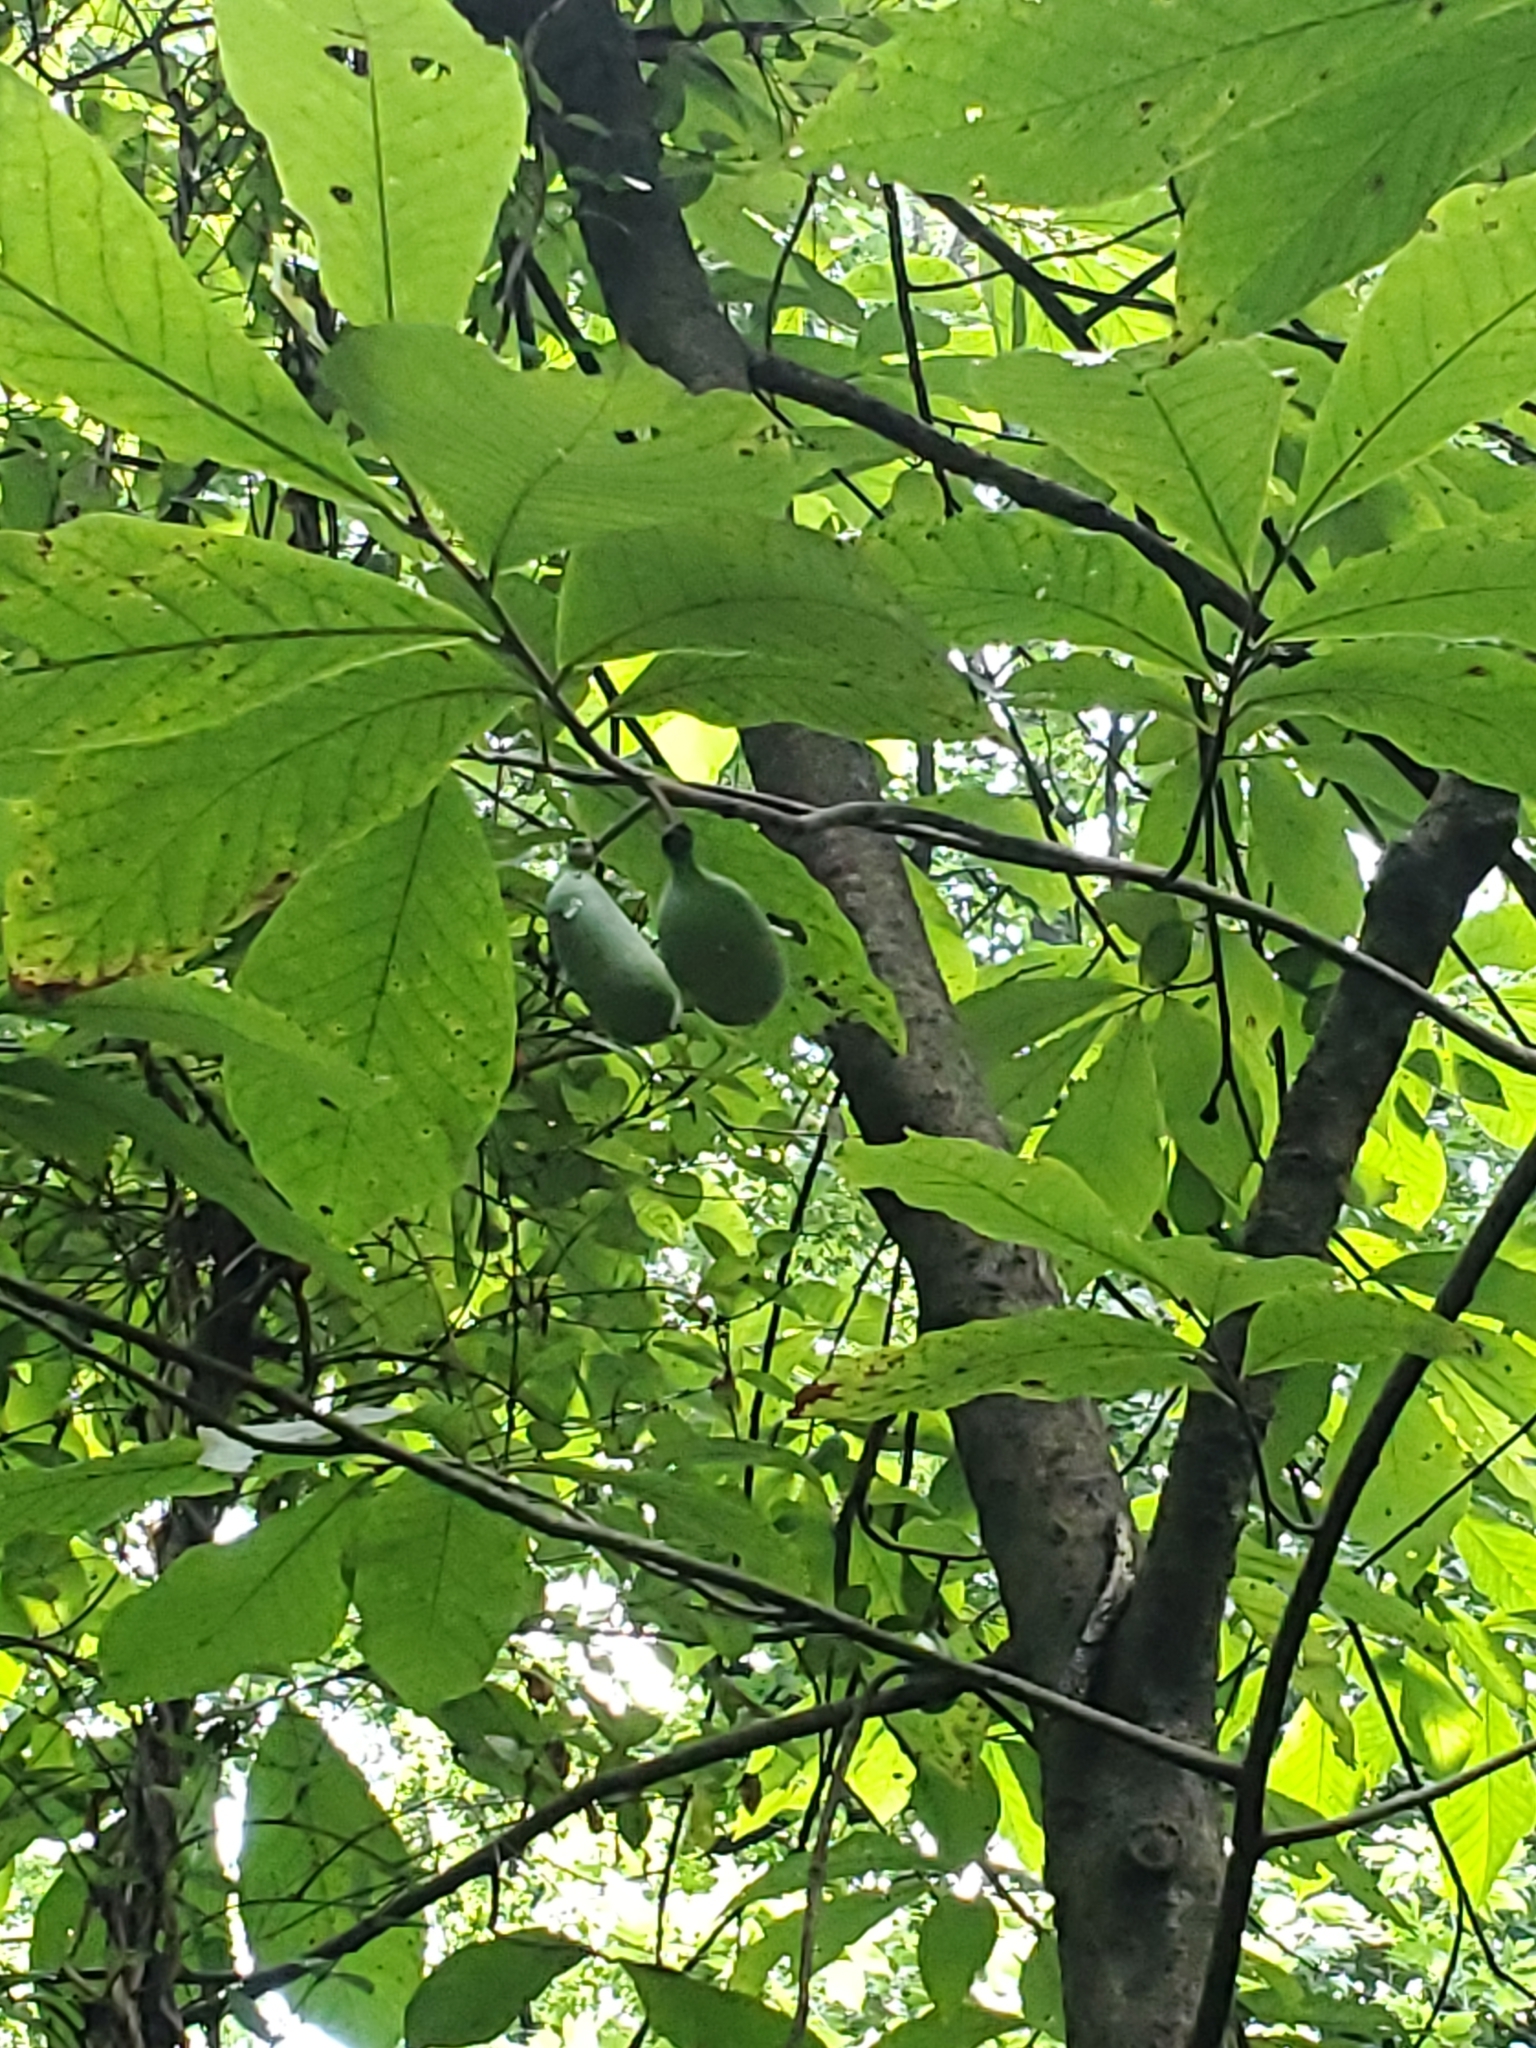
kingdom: Plantae
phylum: Tracheophyta
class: Magnoliopsida
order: Magnoliales
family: Annonaceae
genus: Asimina
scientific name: Asimina triloba
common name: Dog-banana
